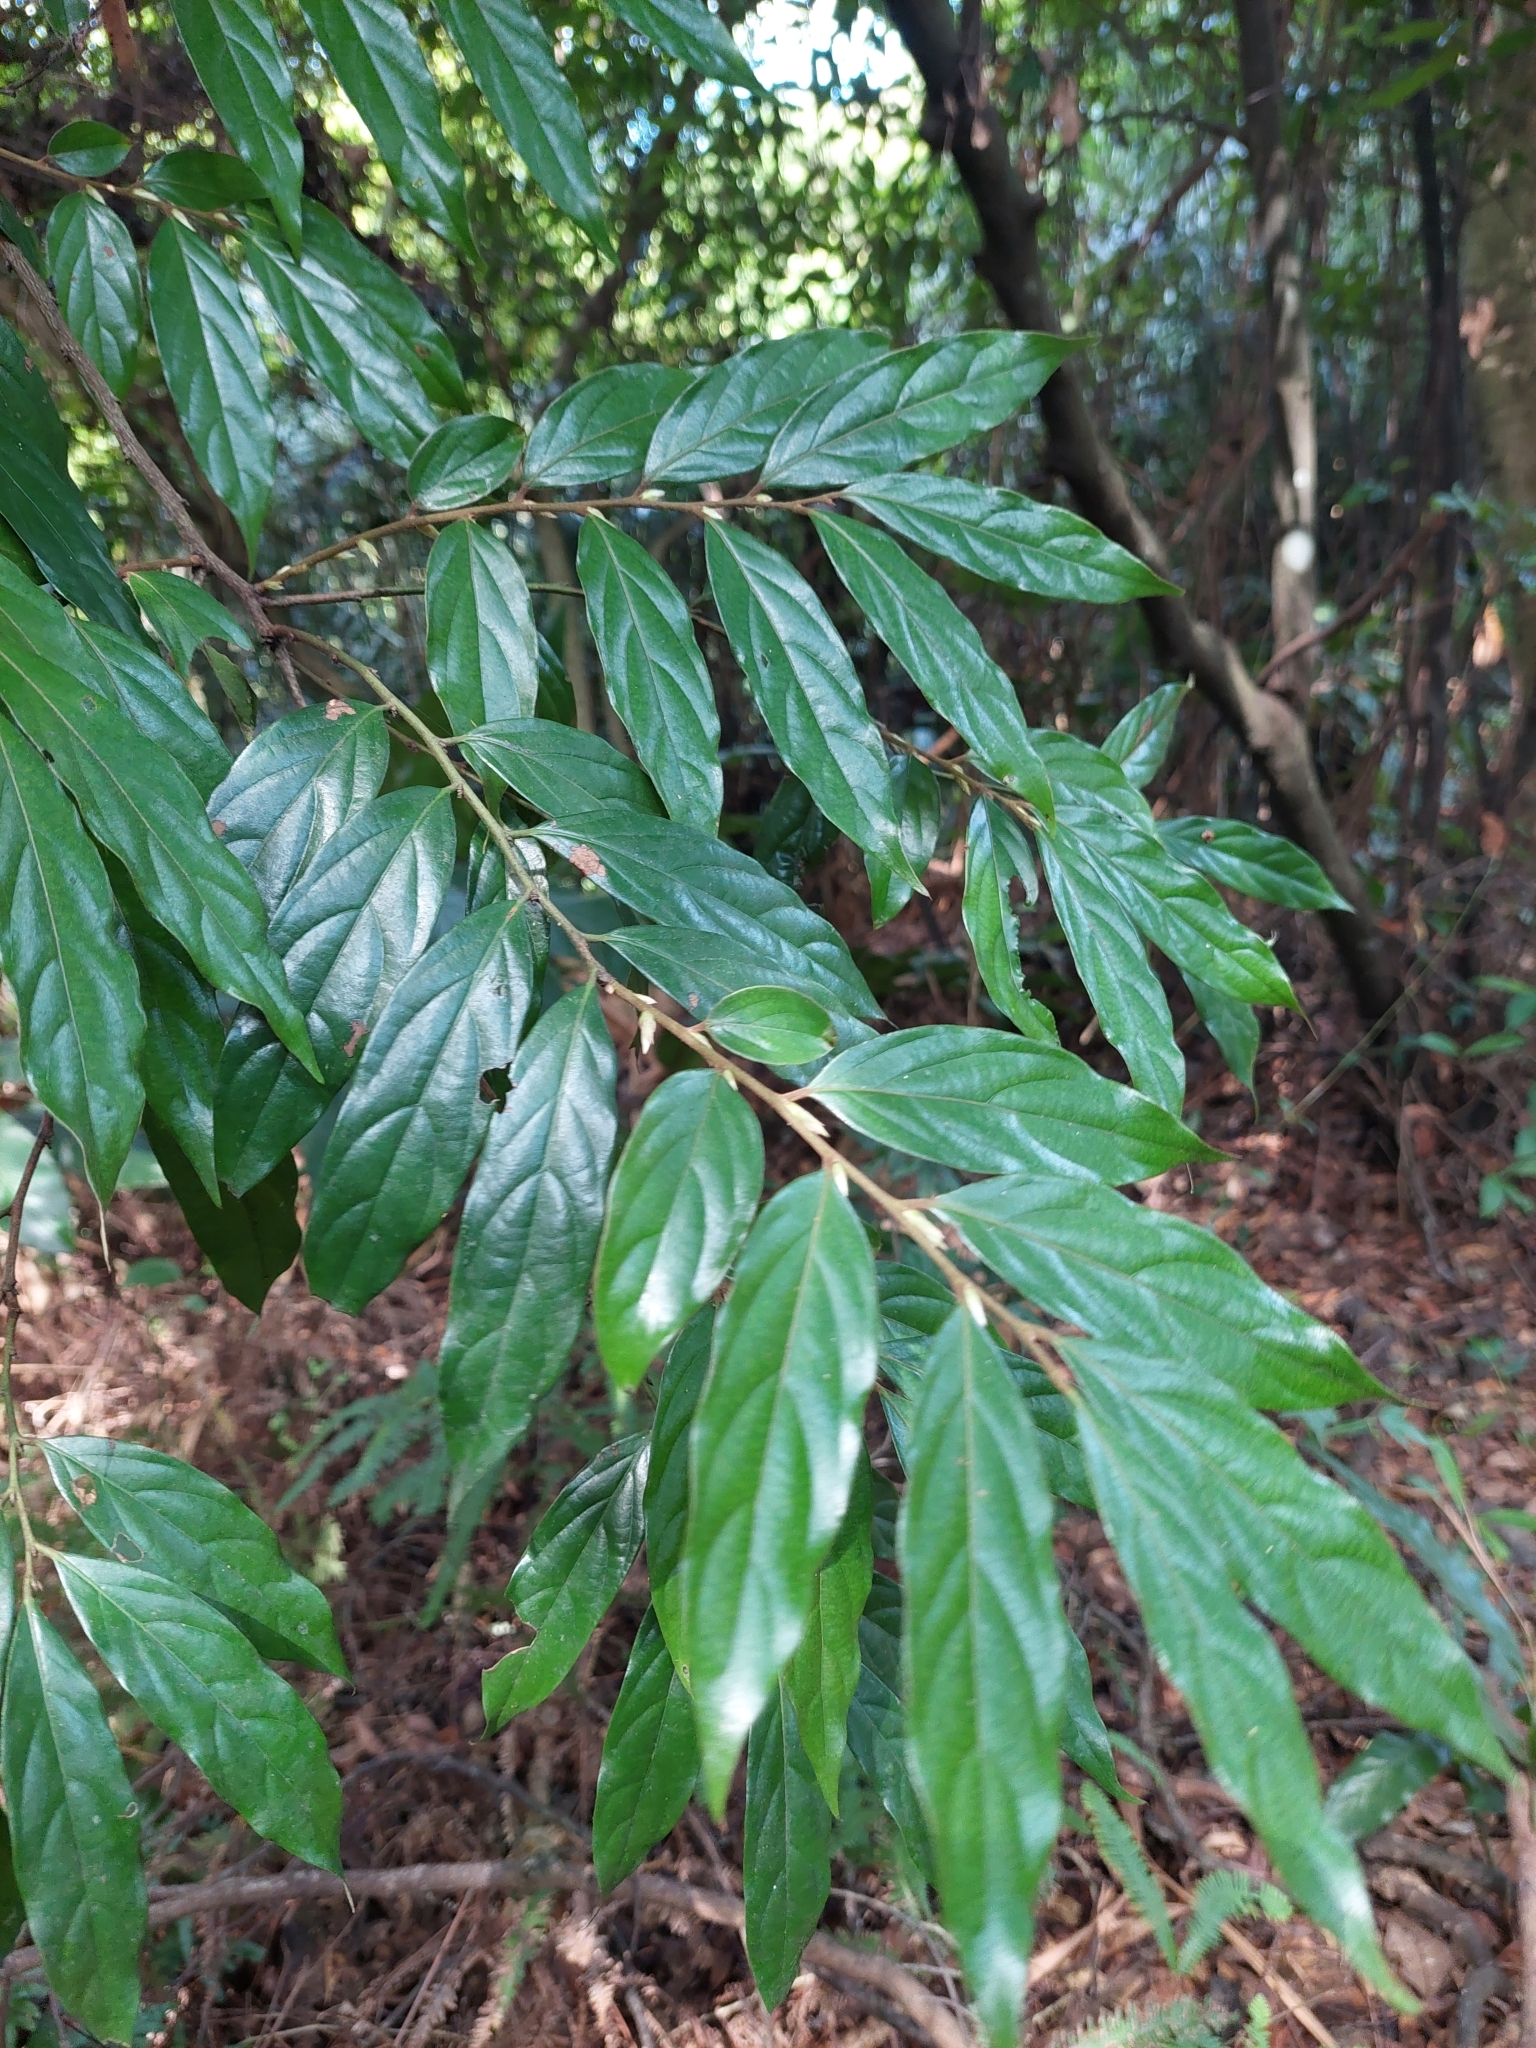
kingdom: Plantae
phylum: Tracheophyta
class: Magnoliopsida
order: Ericales
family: Ebenaceae
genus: Diospyros
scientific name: Diospyros eriantha
